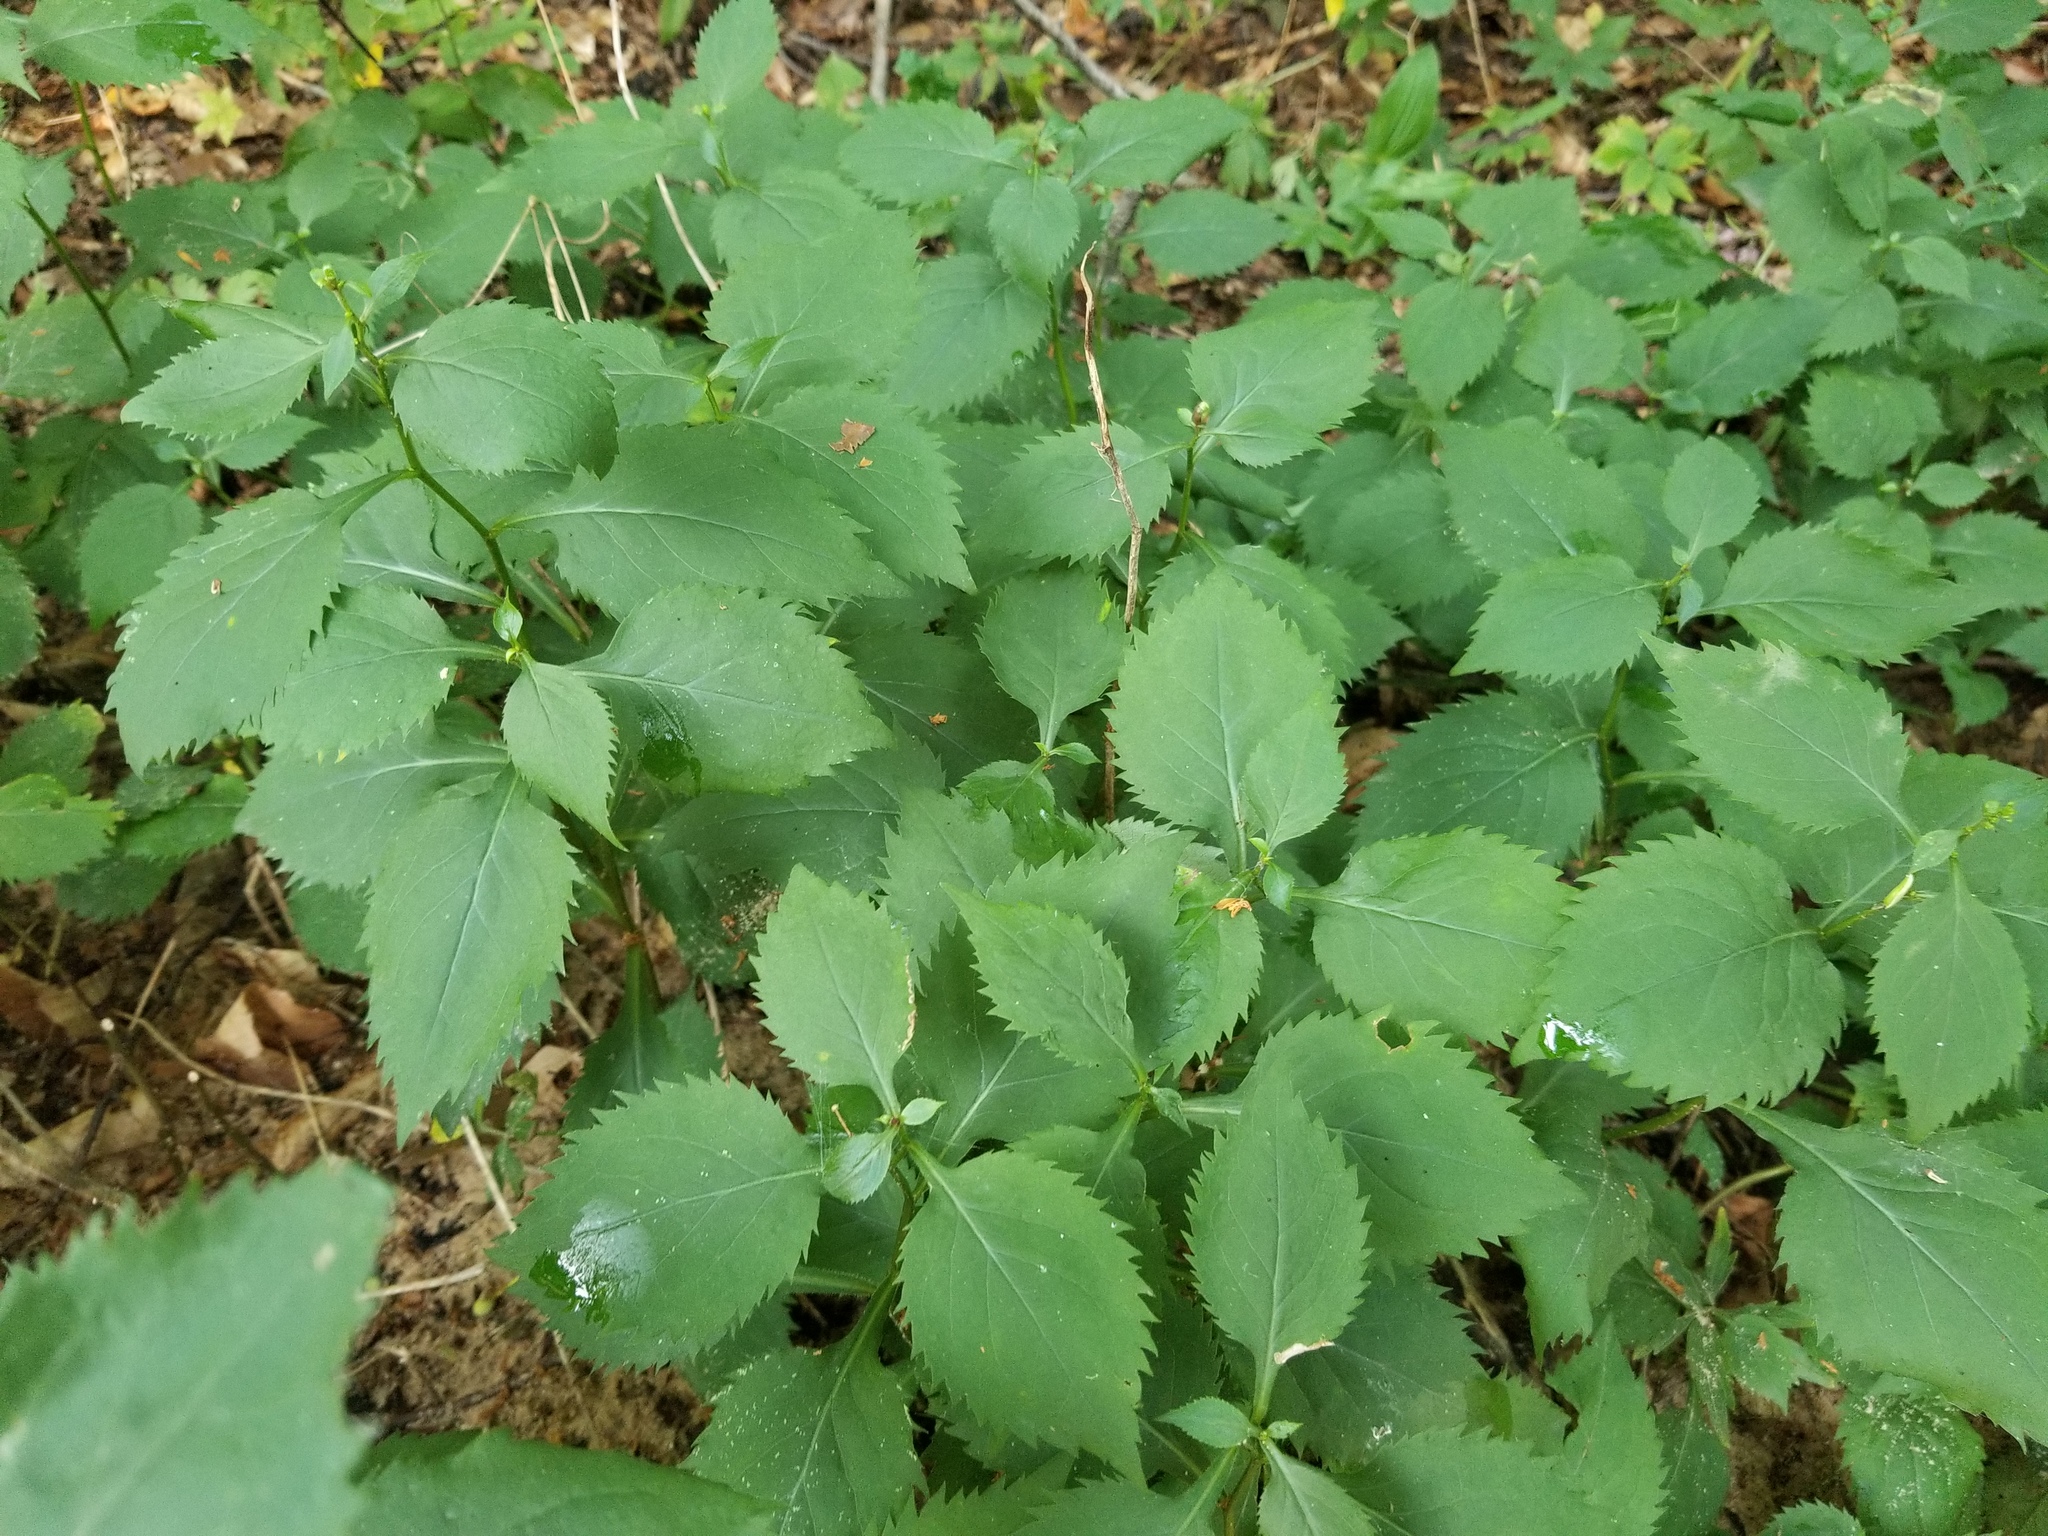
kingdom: Plantae
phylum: Tracheophyta
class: Magnoliopsida
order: Asterales
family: Asteraceae
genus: Solidago
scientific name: Solidago flexicaulis
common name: Zig-zag goldenrod
